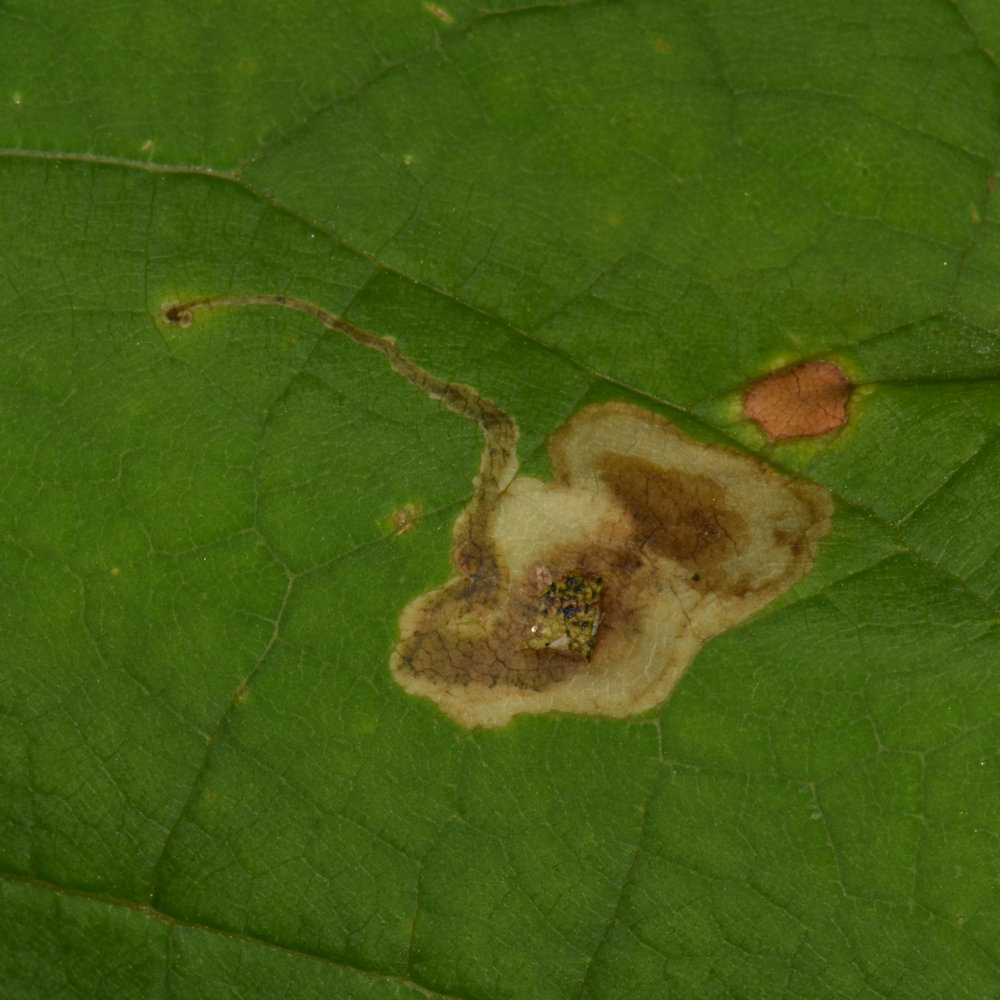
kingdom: Animalia
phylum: Arthropoda
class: Insecta
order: Diptera
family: Agromyzidae
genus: Amauromyza
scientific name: Amauromyza pleuralis
